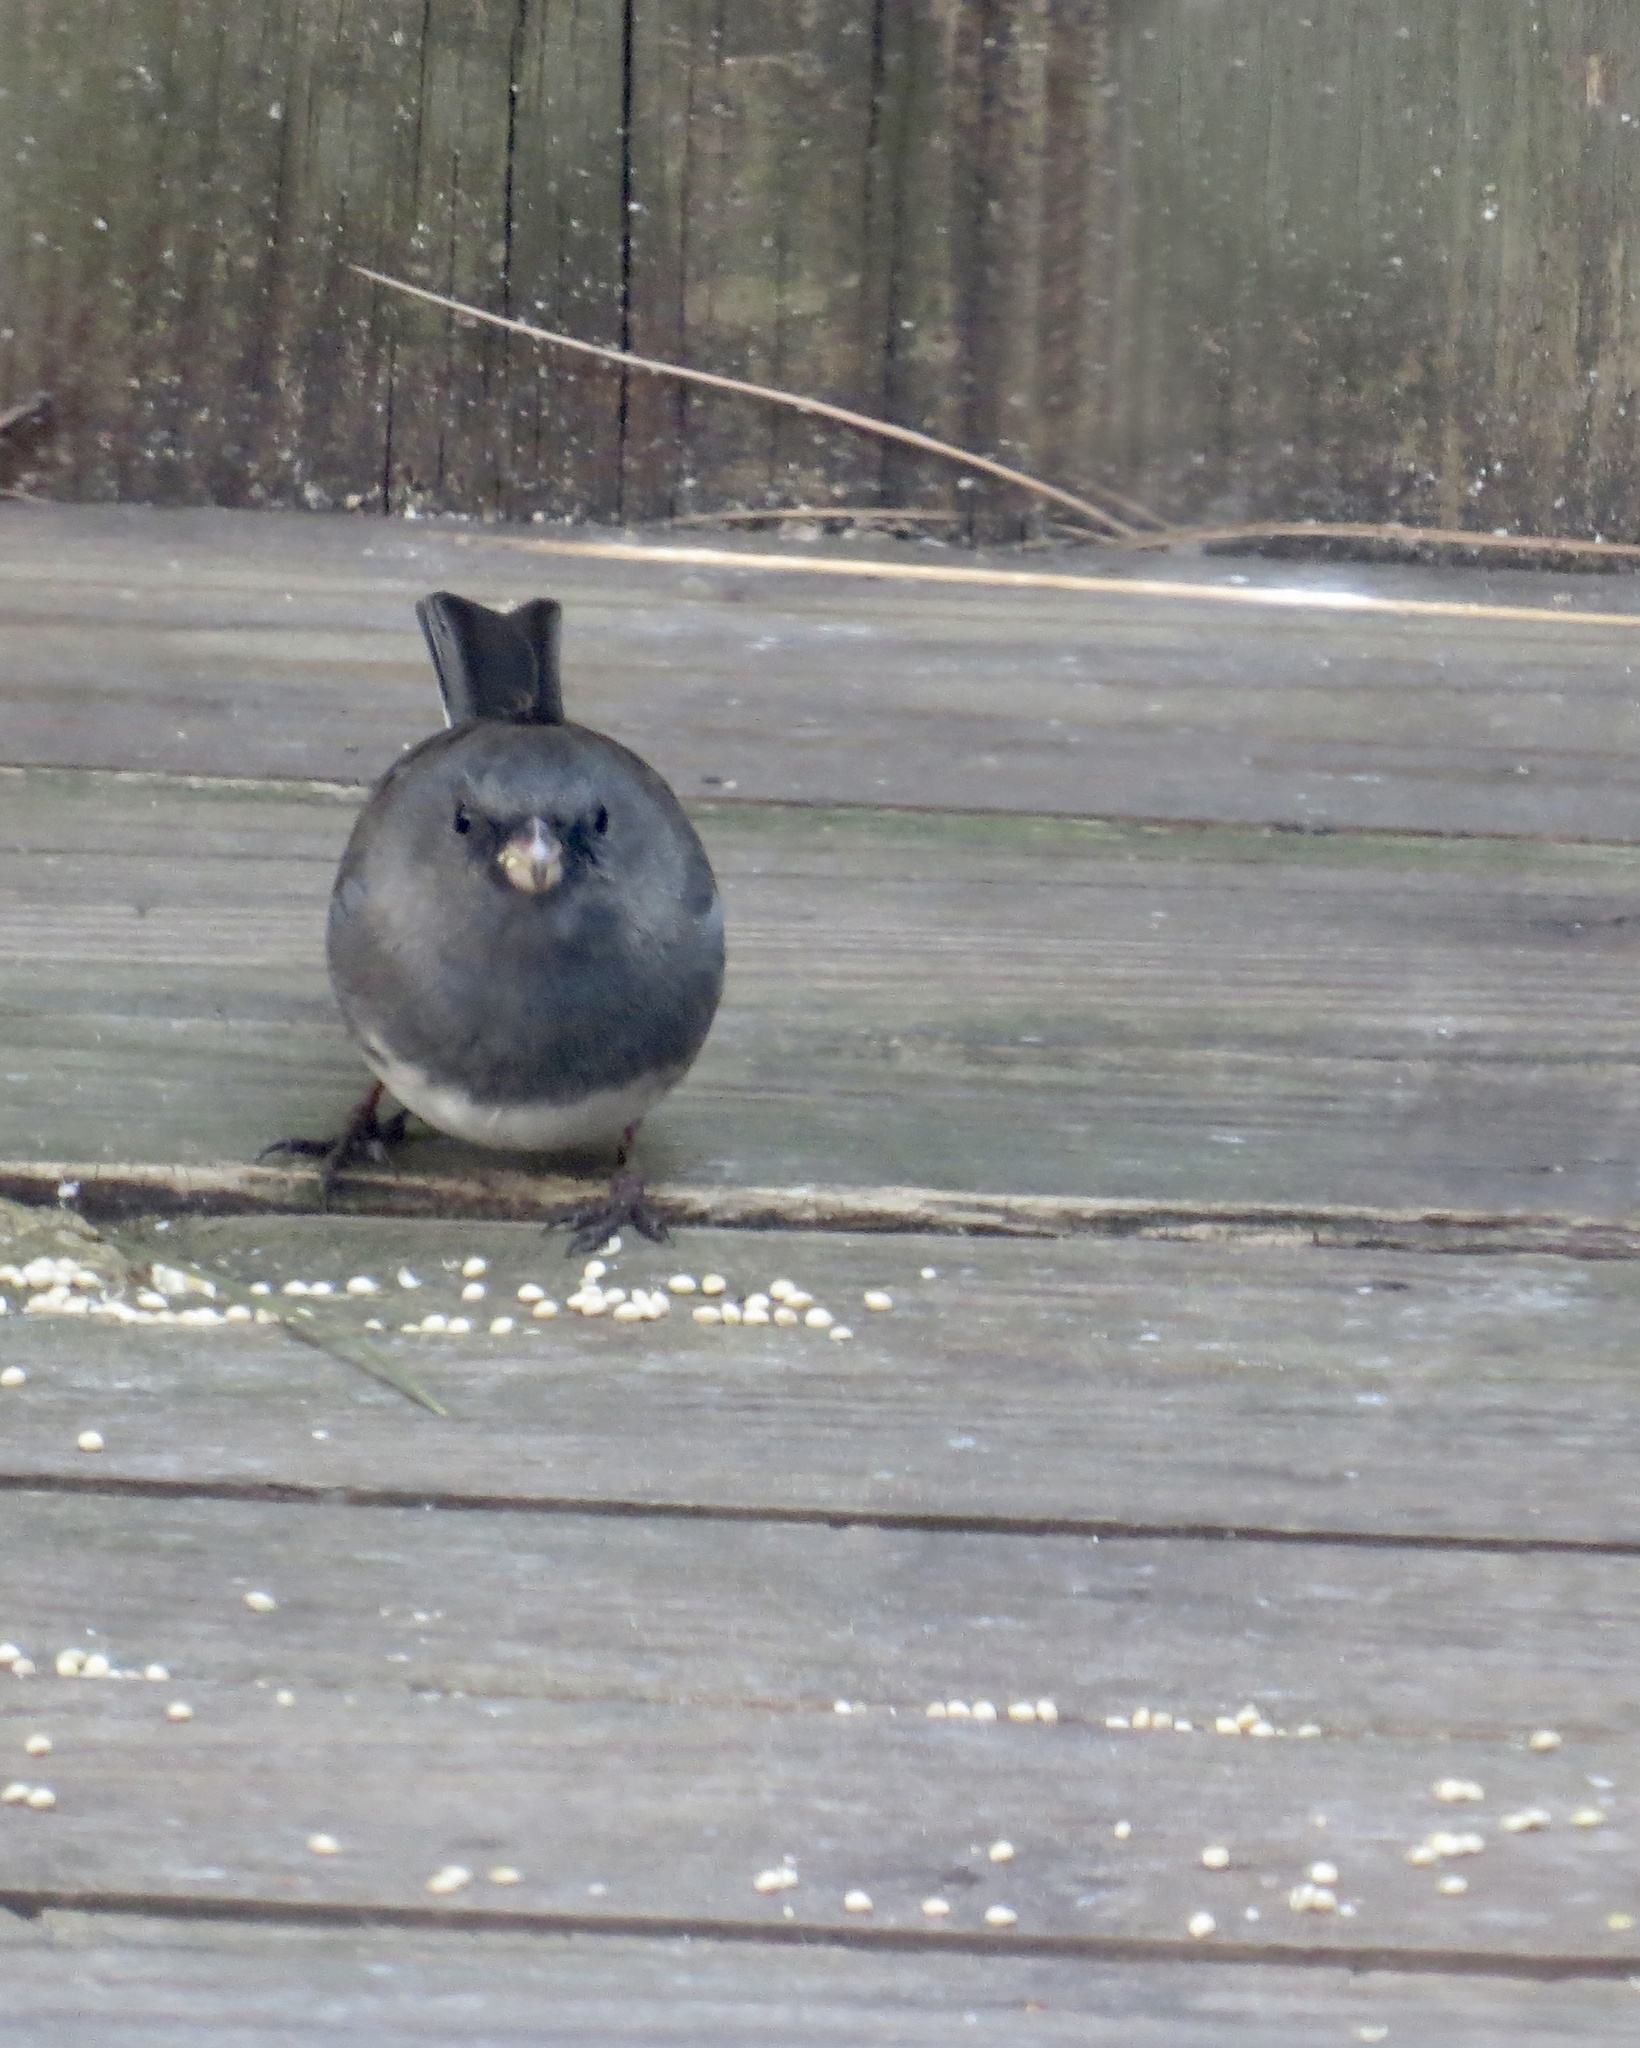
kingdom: Animalia
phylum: Chordata
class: Aves
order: Passeriformes
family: Passerellidae
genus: Junco
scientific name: Junco hyemalis
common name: Dark-eyed junco
